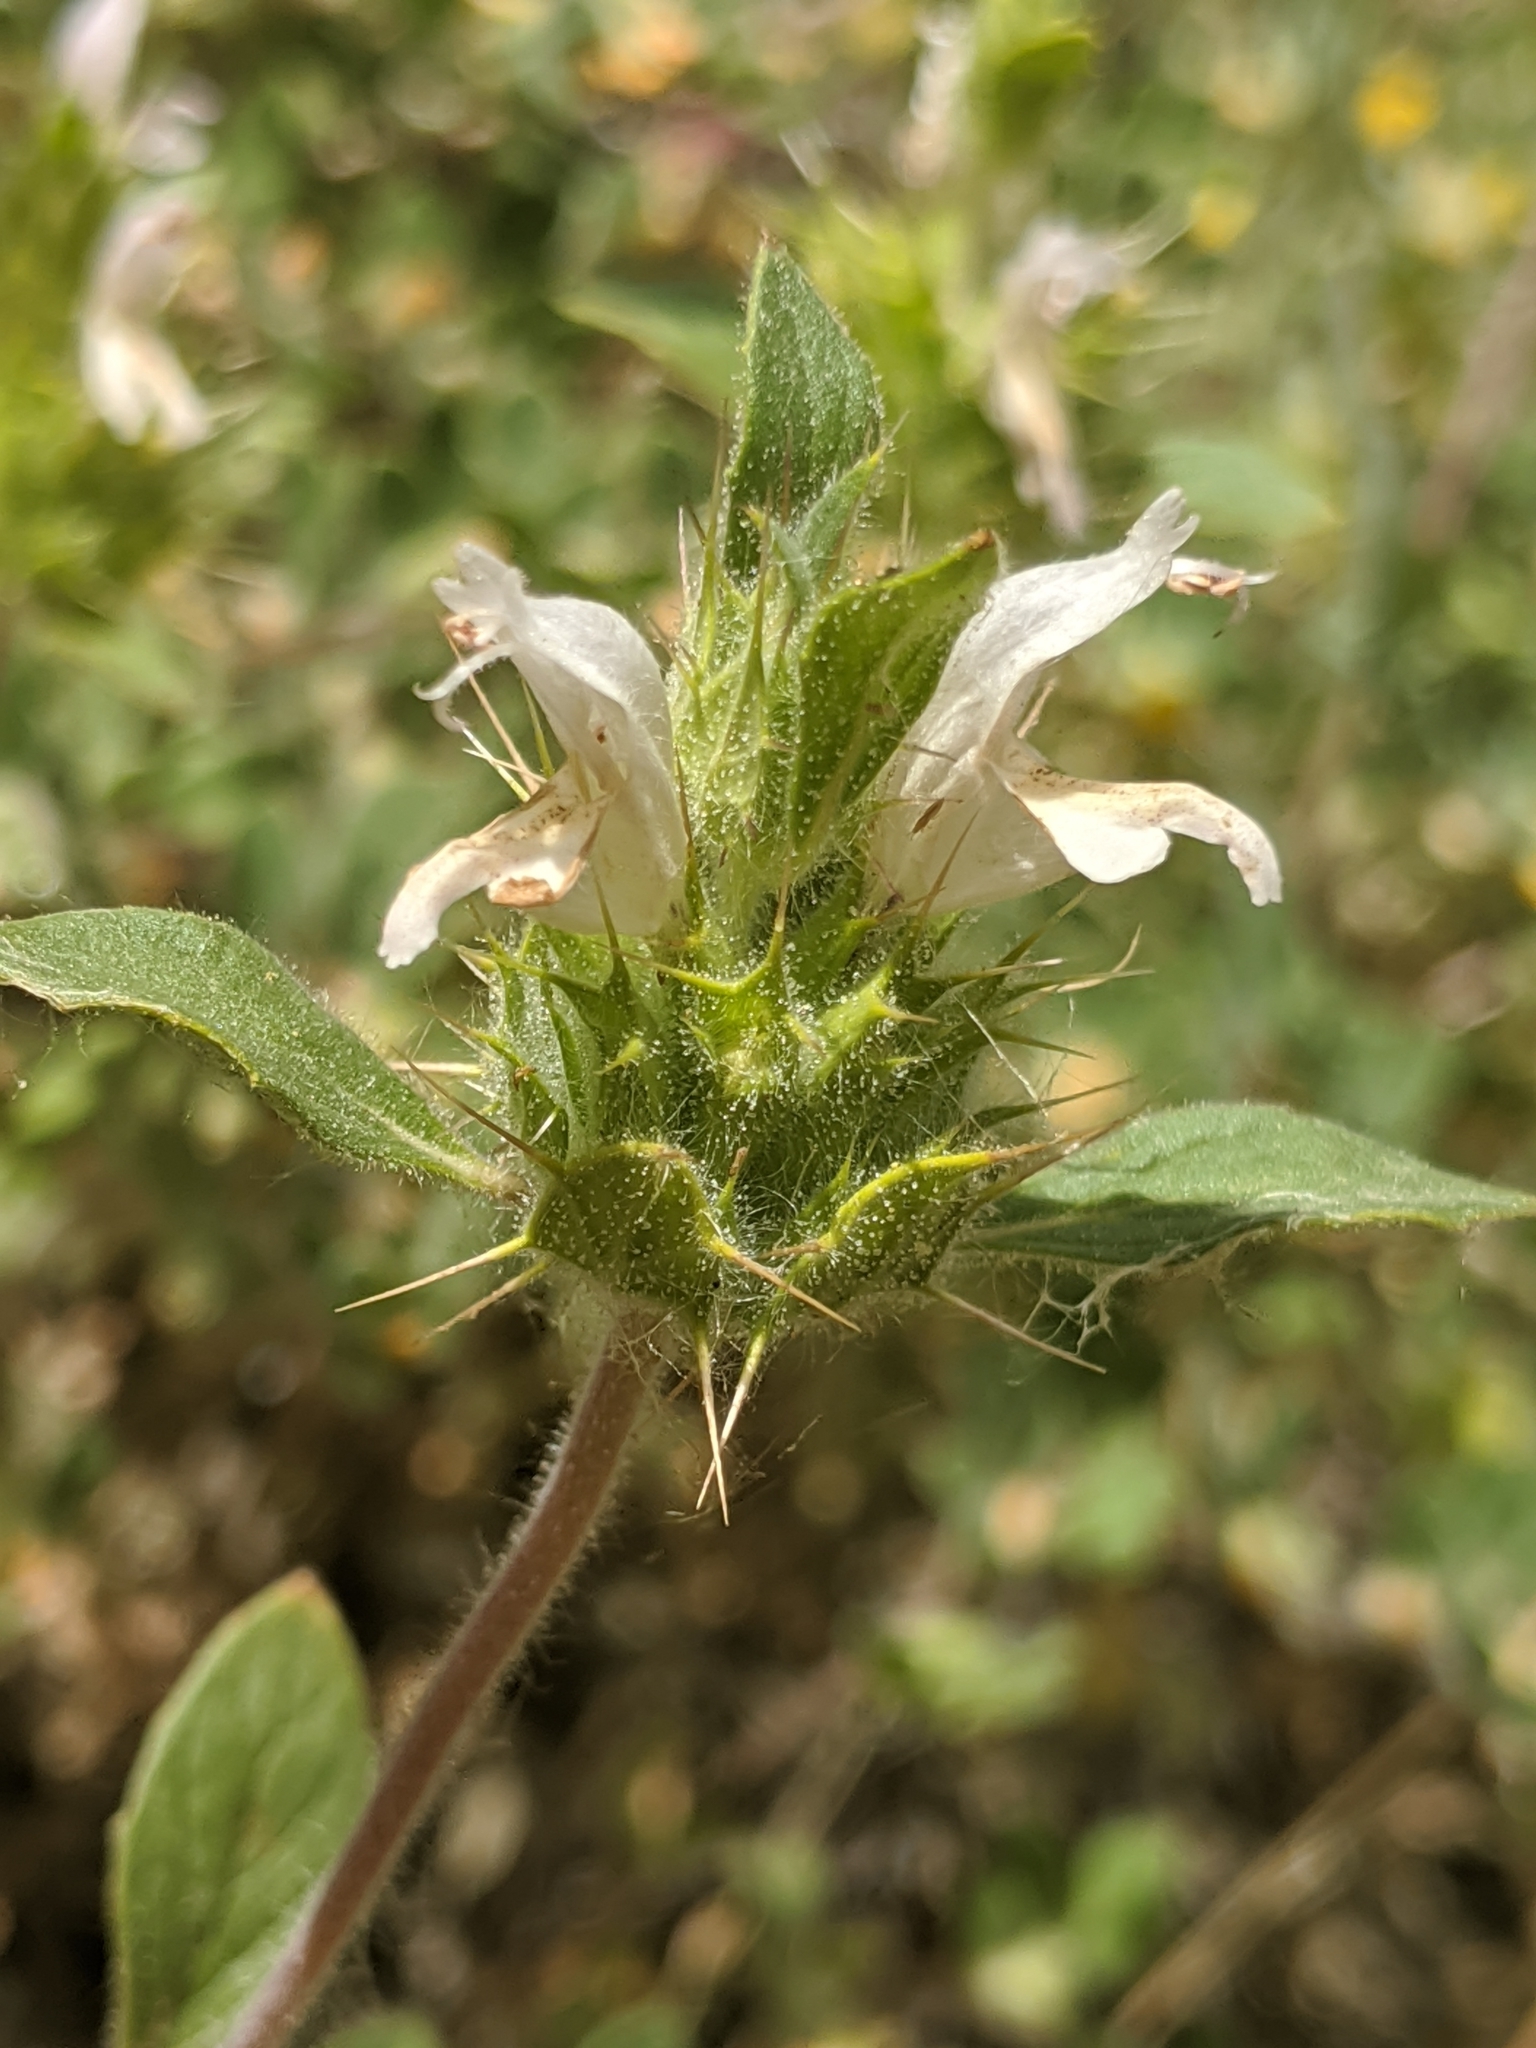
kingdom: Plantae
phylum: Tracheophyta
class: Magnoliopsida
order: Lamiales
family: Lamiaceae
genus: Acanthomintha
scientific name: Acanthomintha lanceolata
